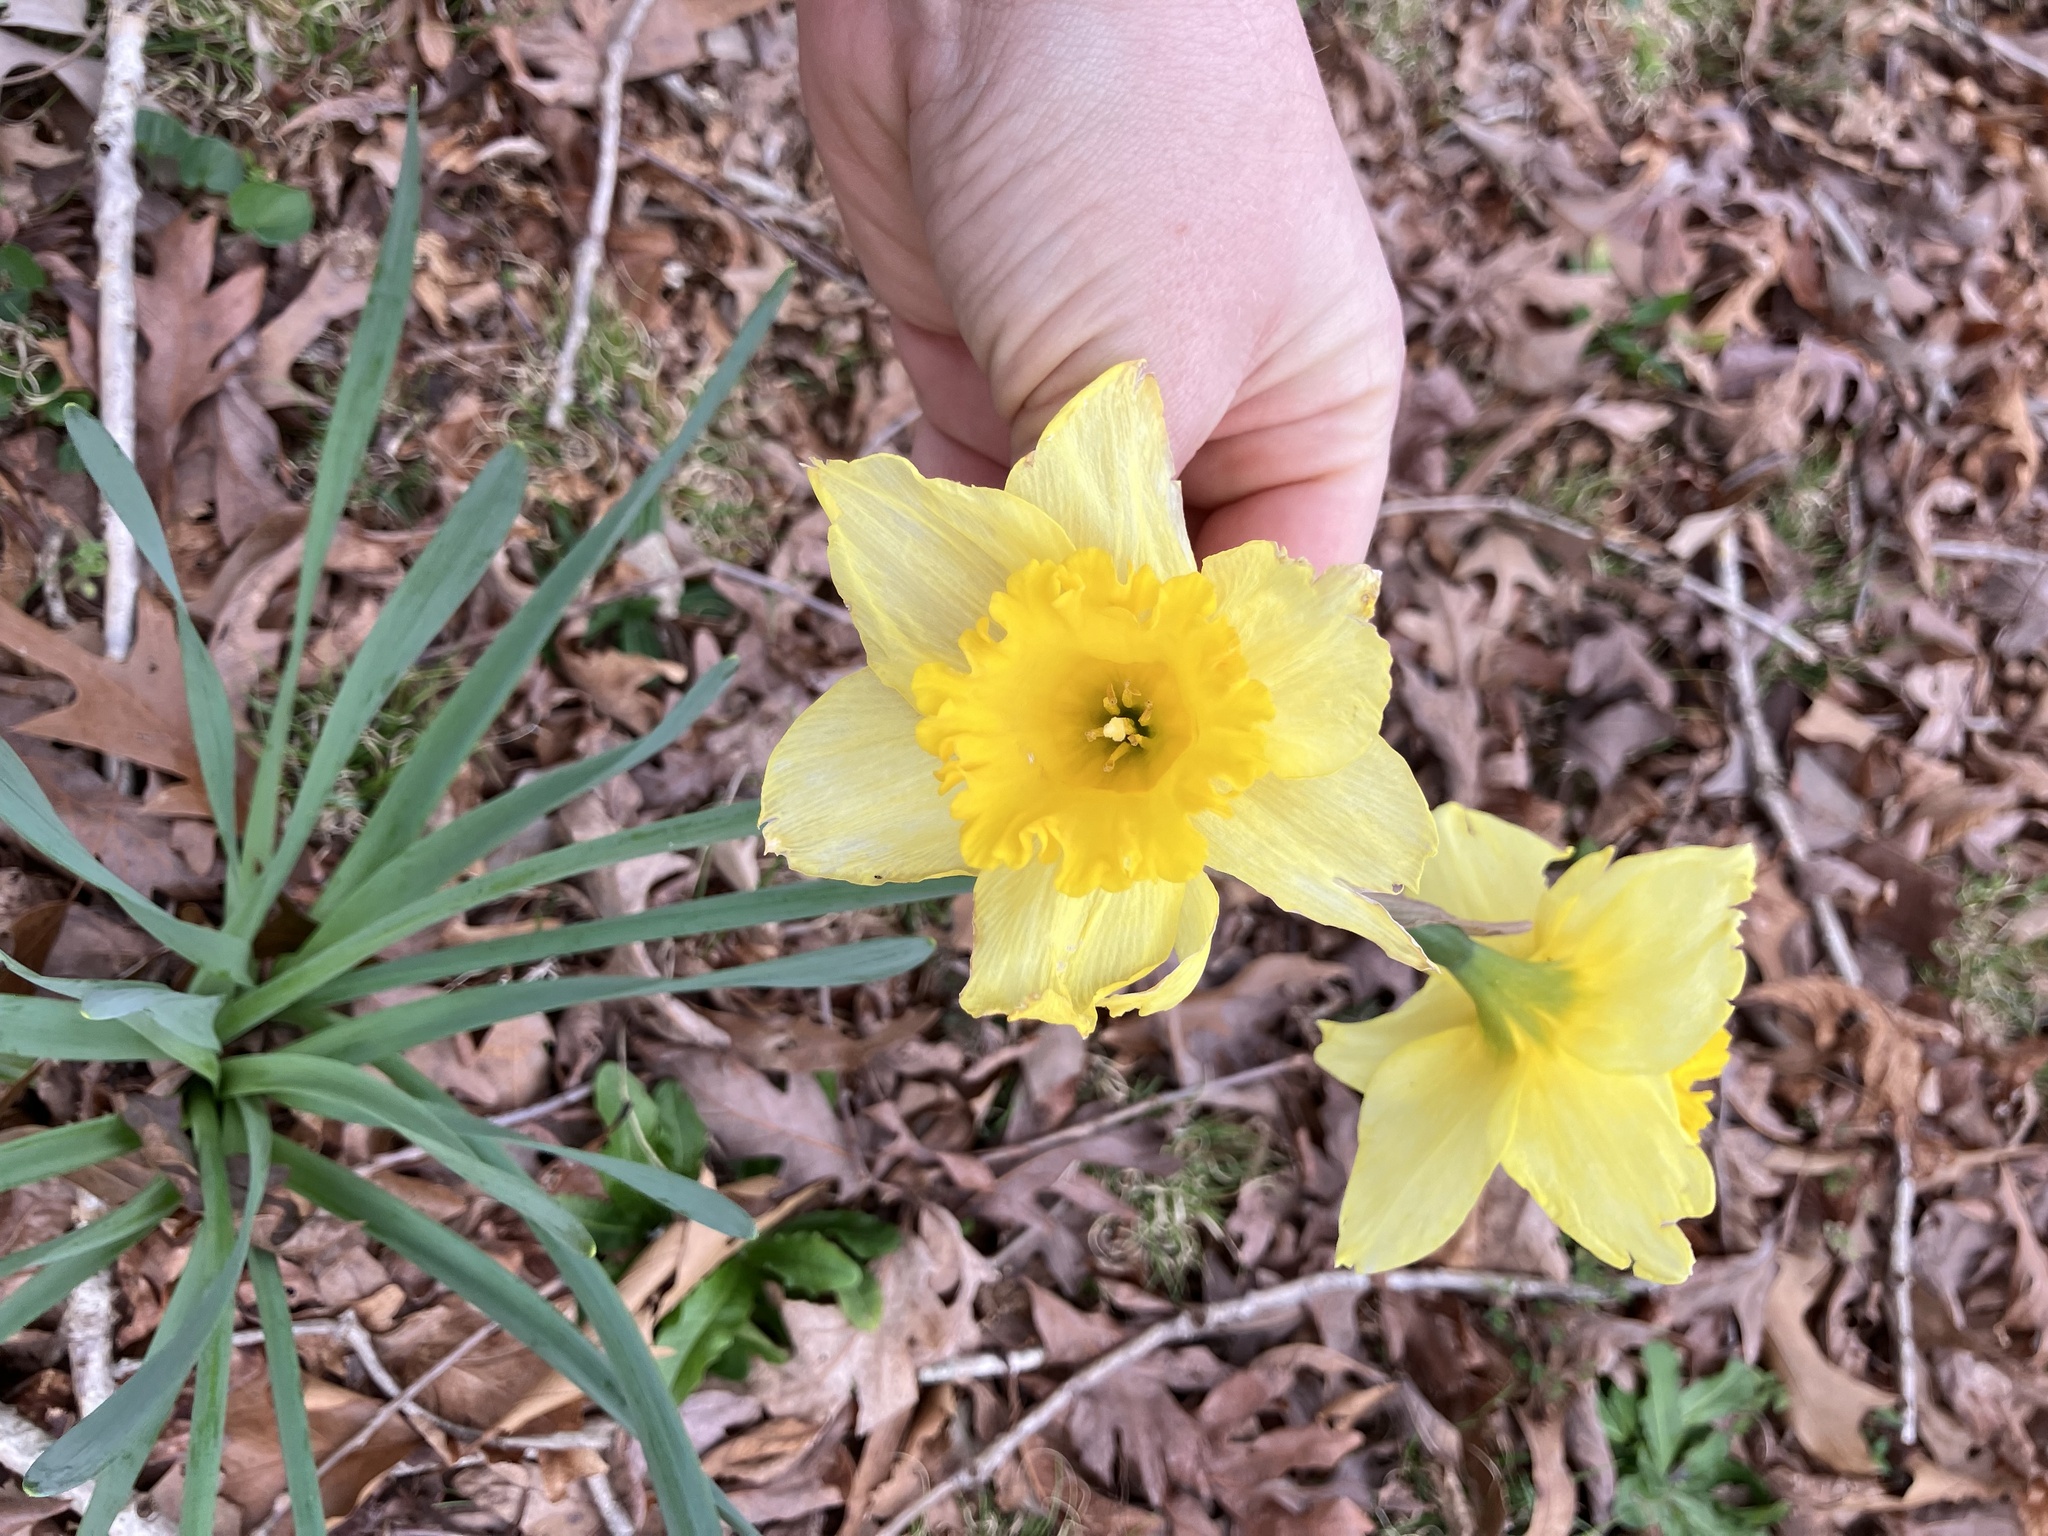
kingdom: Plantae
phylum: Tracheophyta
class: Liliopsida
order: Asparagales
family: Amaryllidaceae
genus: Narcissus
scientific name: Narcissus pseudonarcissus
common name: Daffodil
